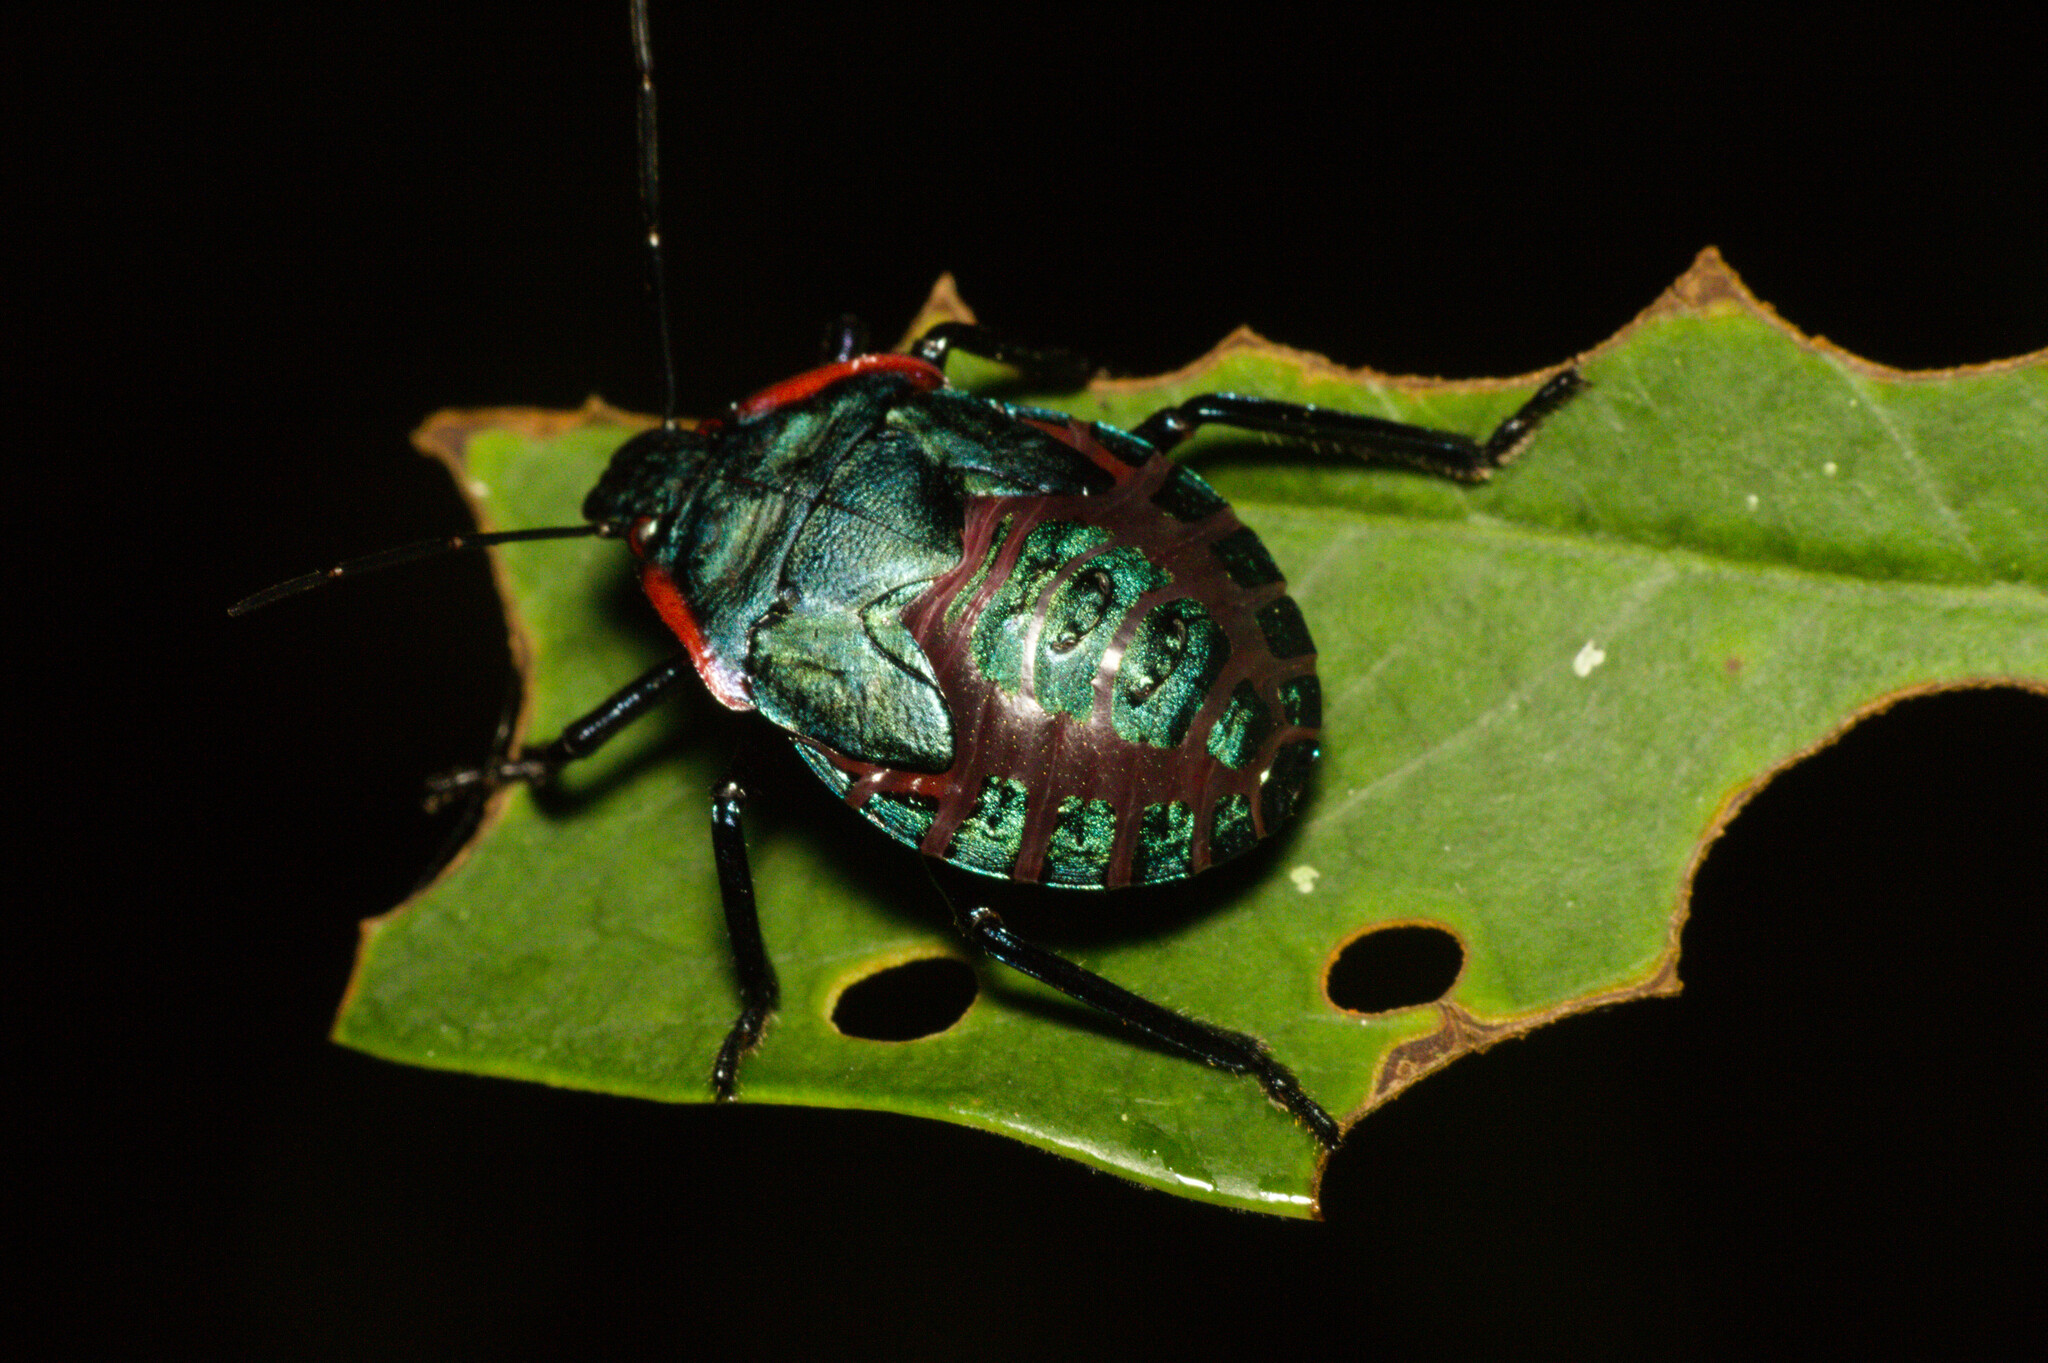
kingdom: Animalia
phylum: Arthropoda
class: Insecta
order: Hemiptera
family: Pentatomidae
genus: Alcaeorrhynchus
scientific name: Alcaeorrhynchus grandis
